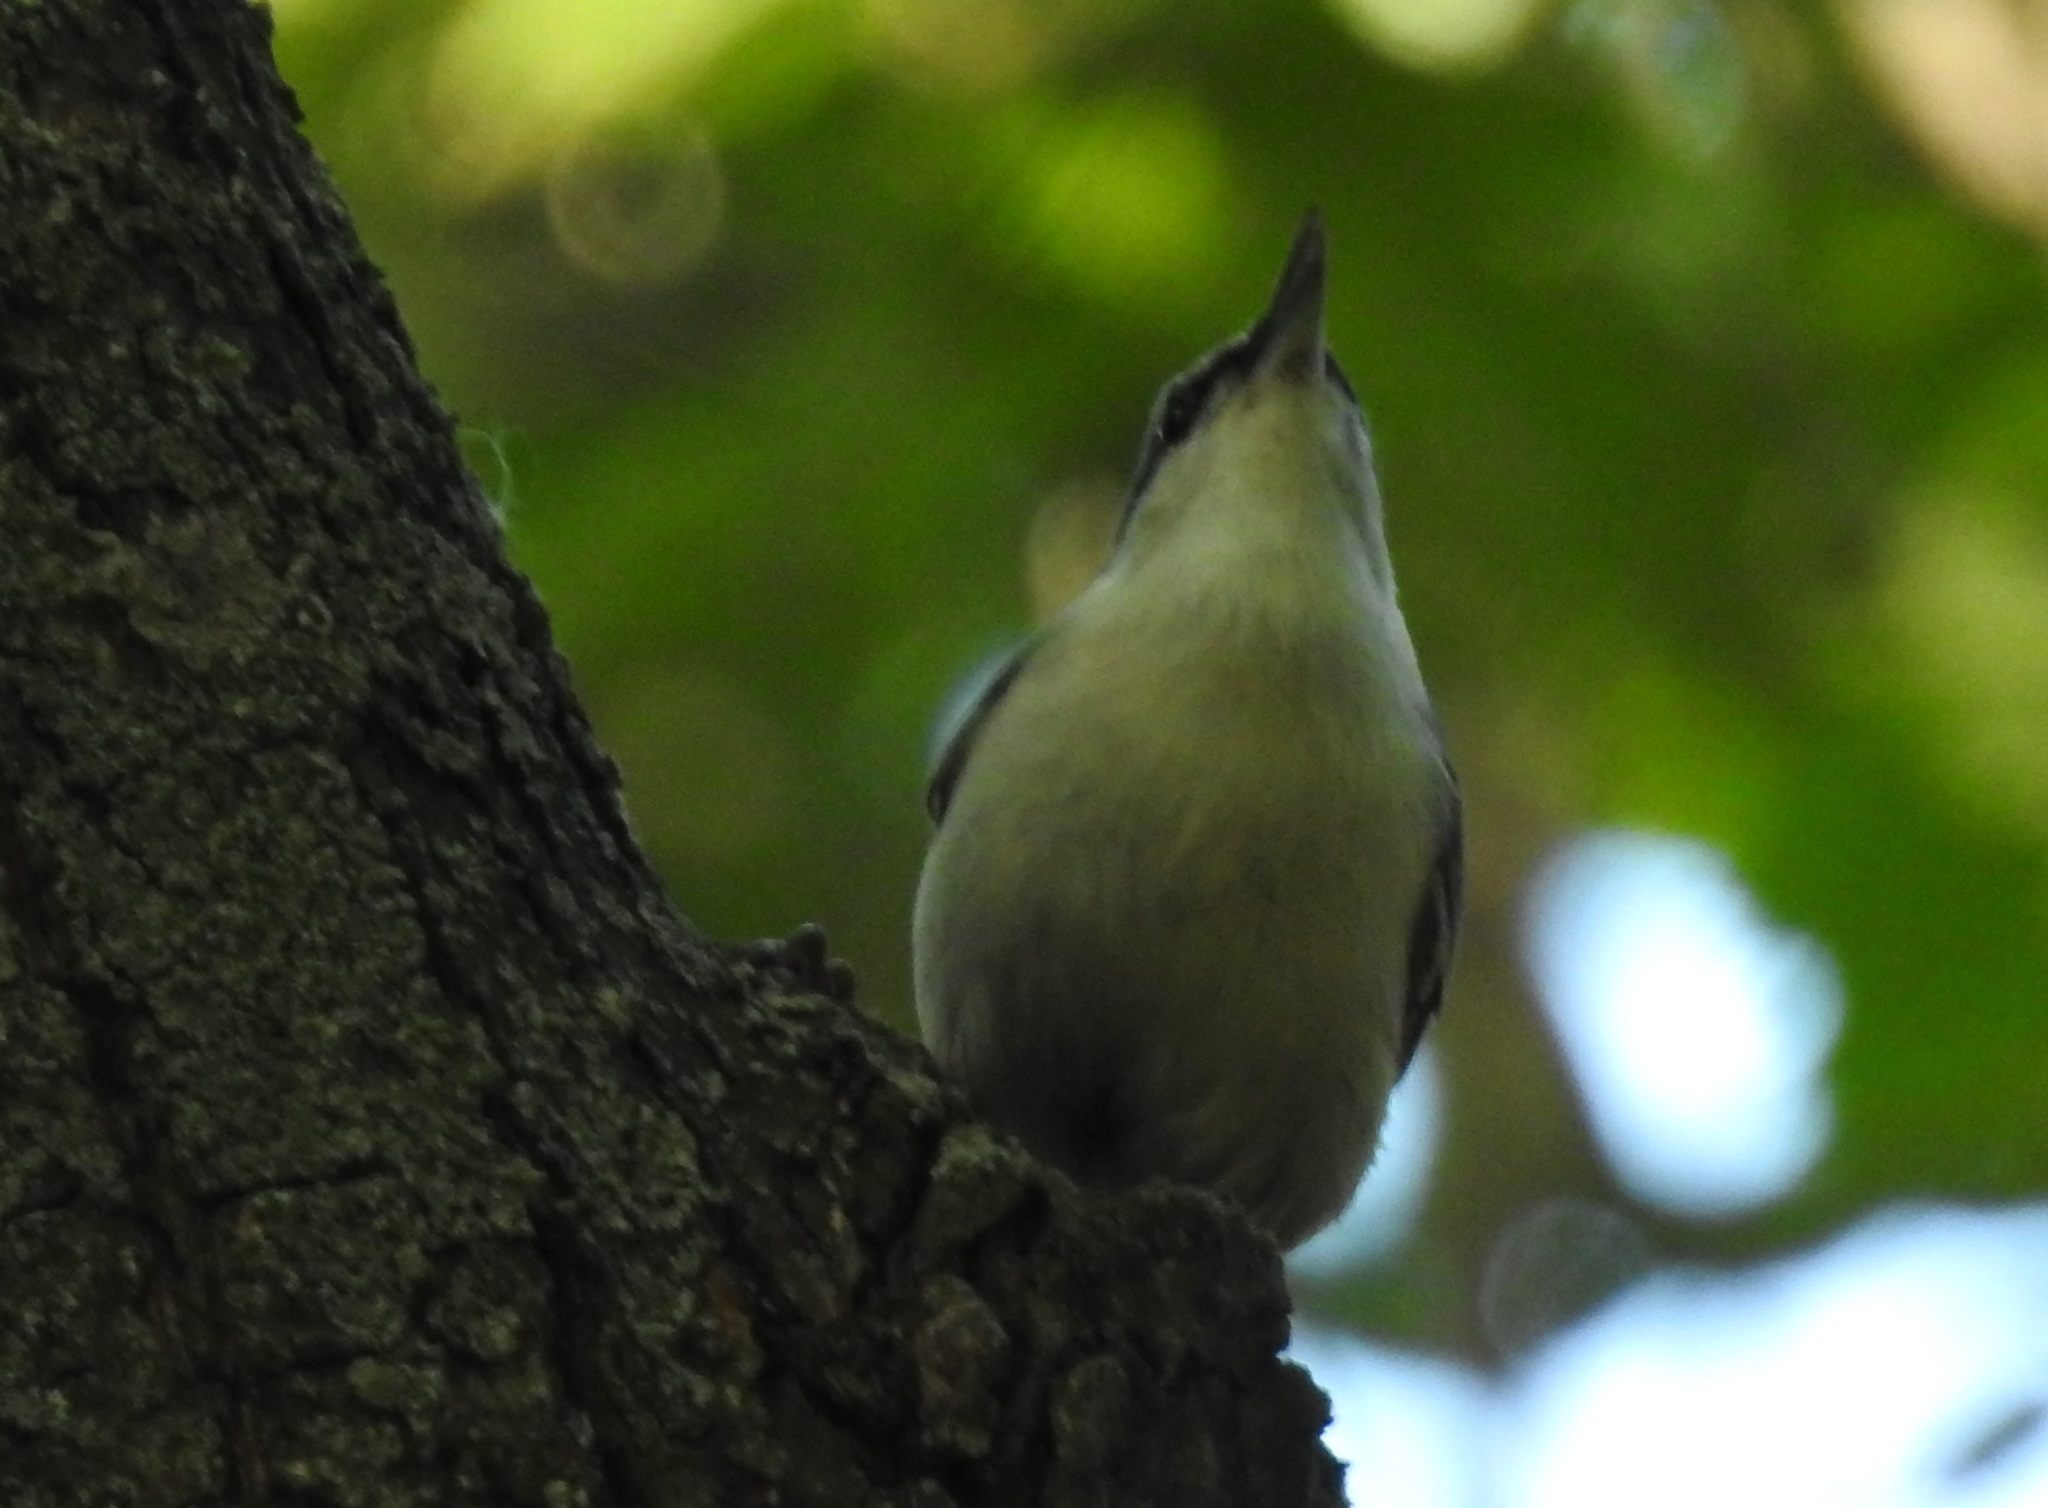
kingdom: Animalia
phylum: Chordata
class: Aves
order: Passeriformes
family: Sittidae
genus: Sitta
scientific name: Sitta europaea
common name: Eurasian nuthatch
